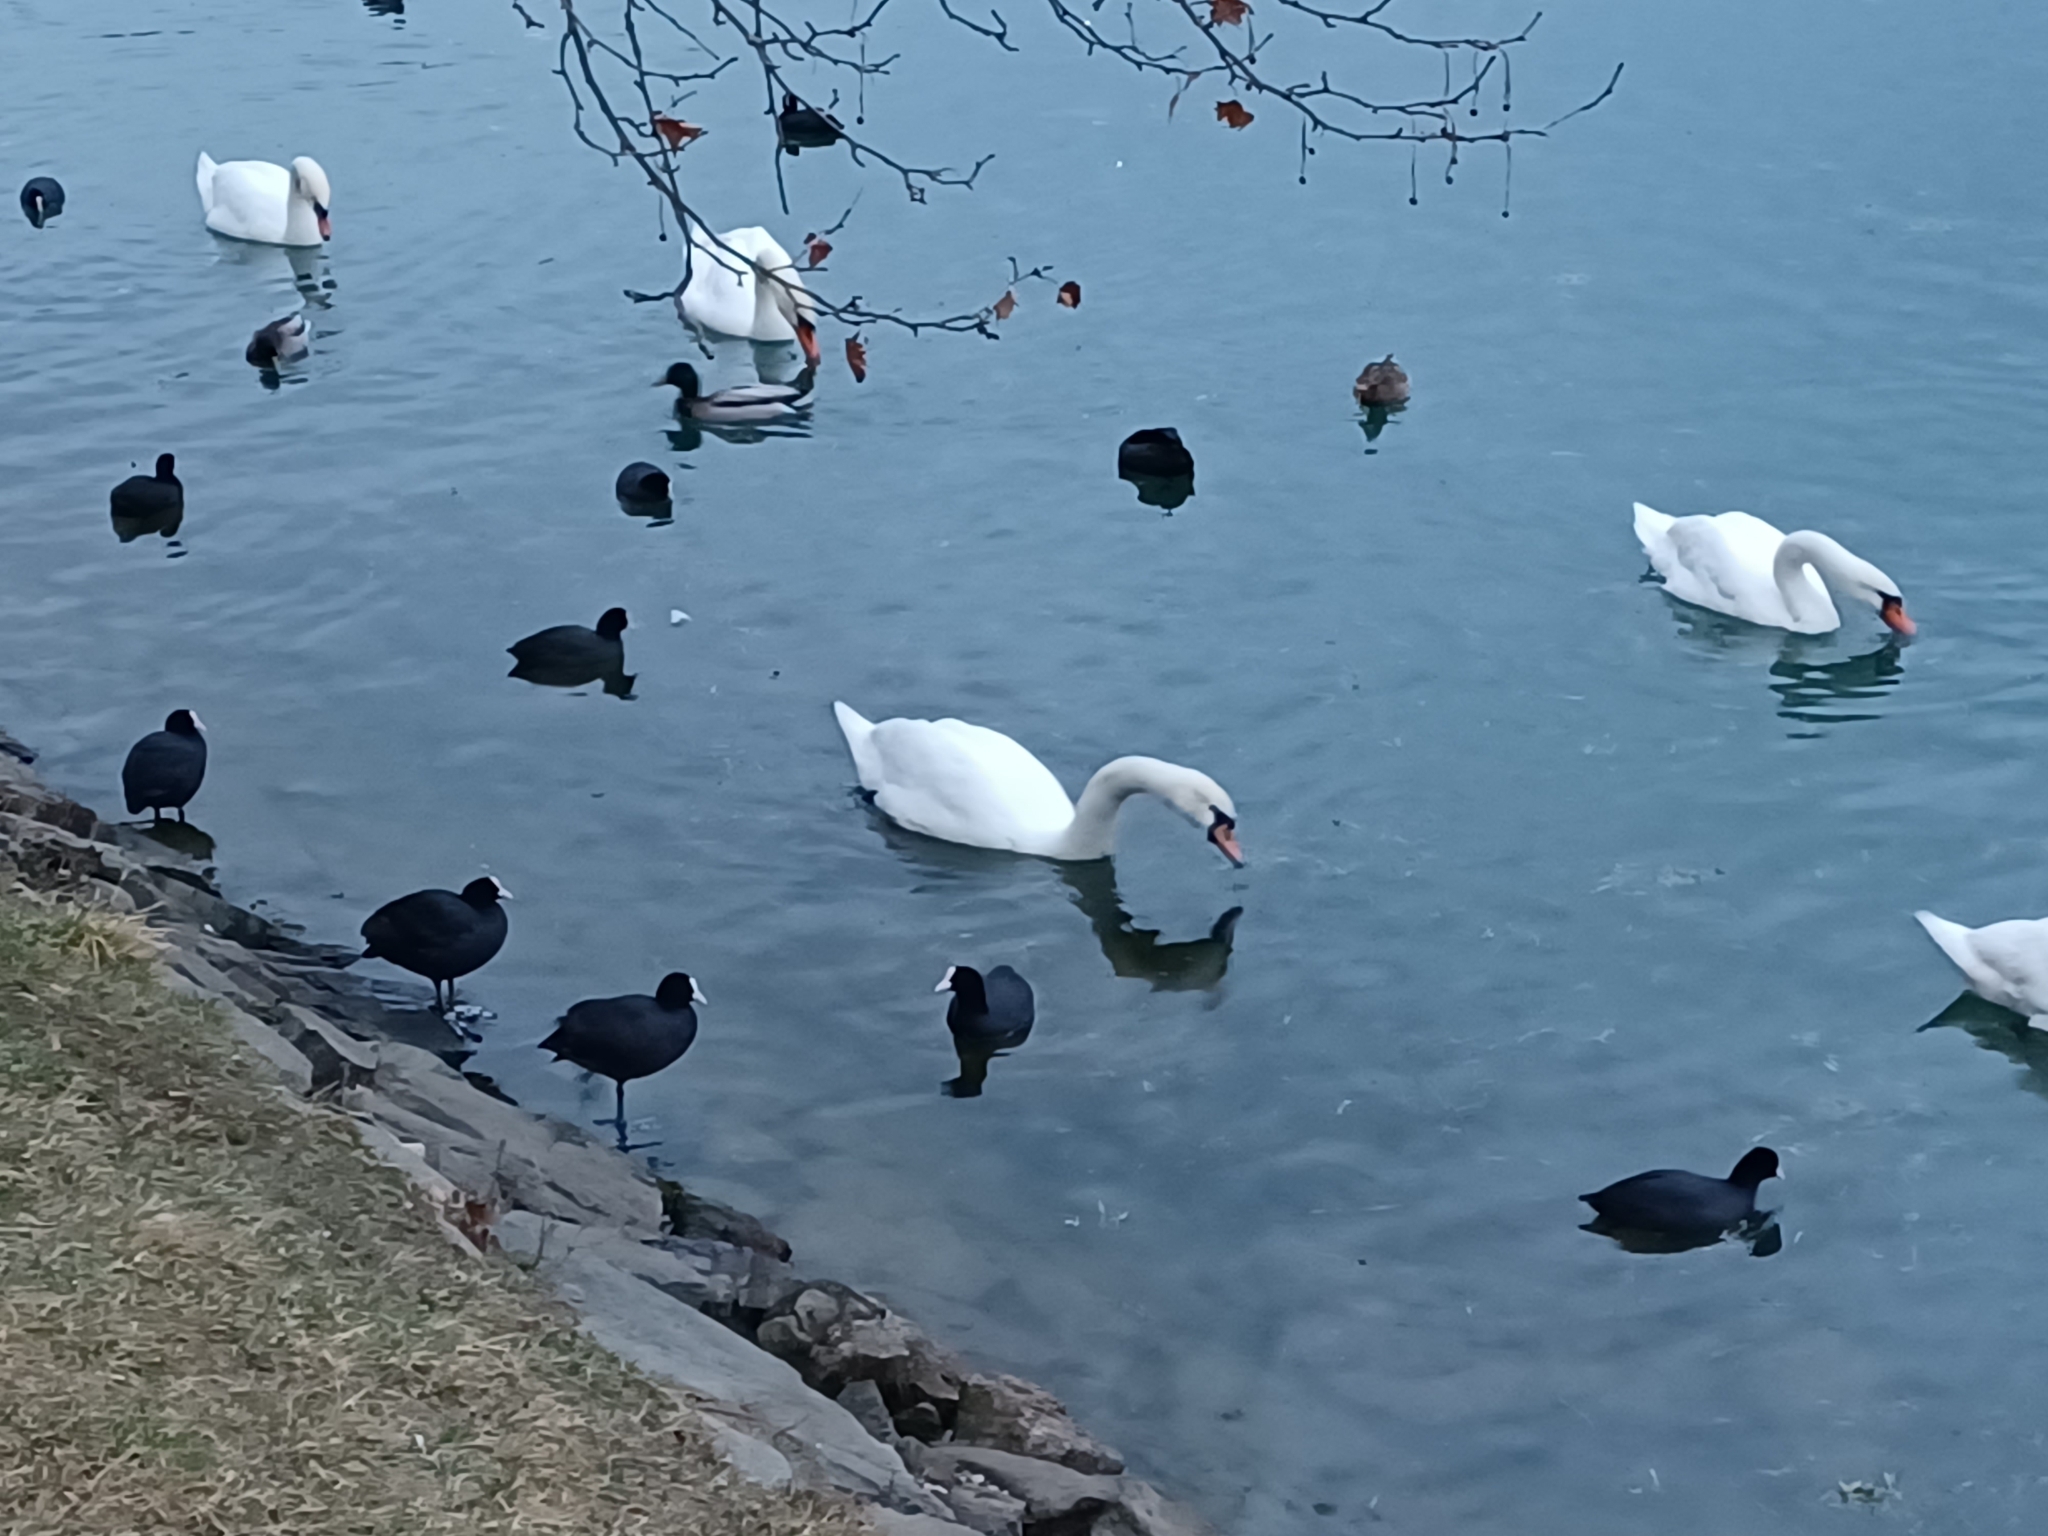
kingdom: Animalia
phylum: Chordata
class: Aves
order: Gruiformes
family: Rallidae
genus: Fulica
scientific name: Fulica atra
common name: Eurasian coot
